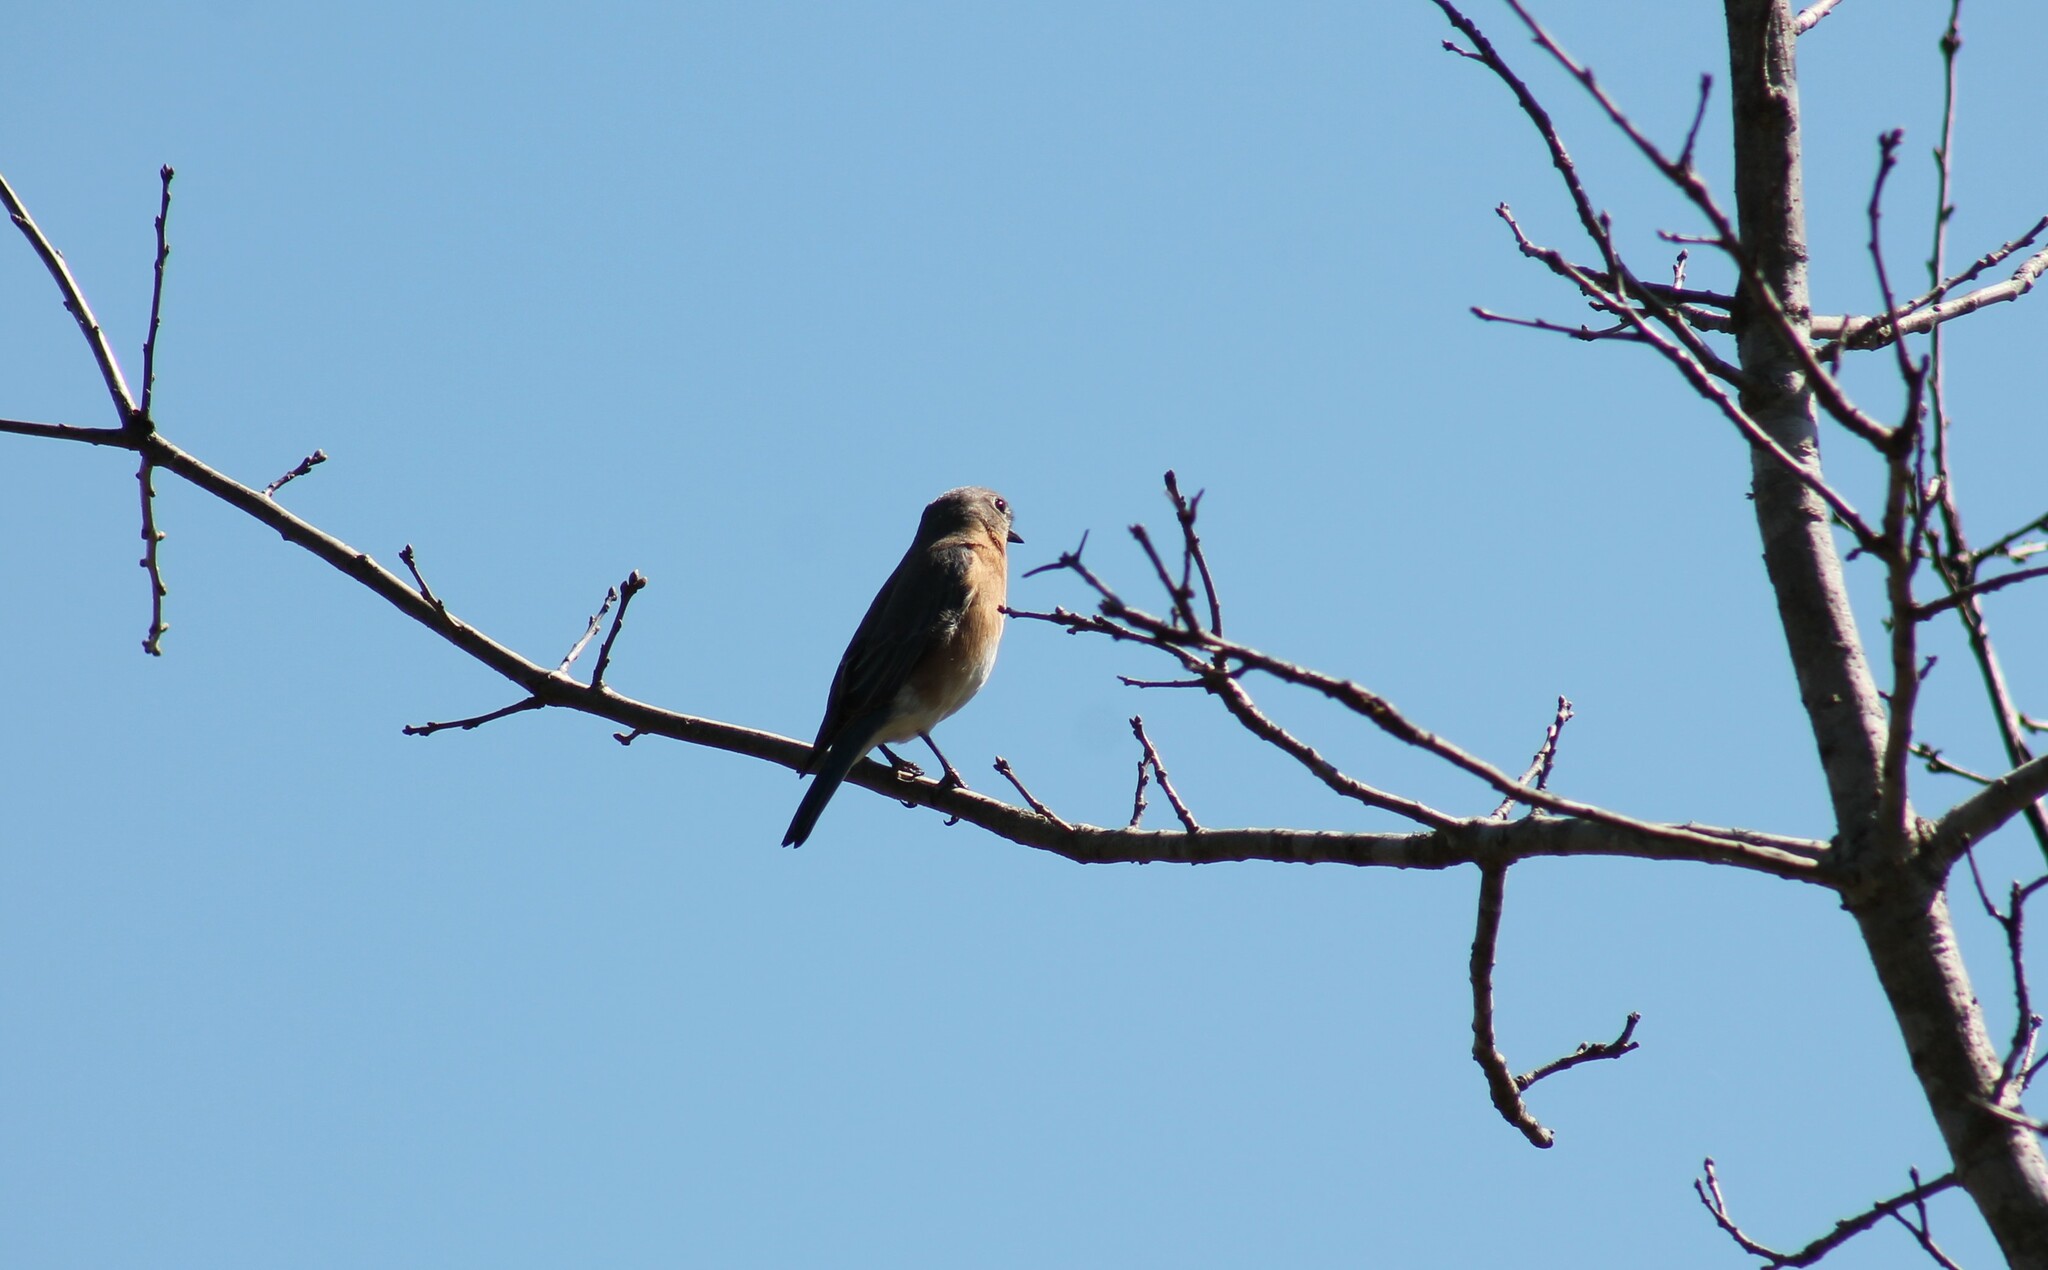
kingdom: Animalia
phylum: Chordata
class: Aves
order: Passeriformes
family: Turdidae
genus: Sialia
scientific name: Sialia sialis
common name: Eastern bluebird
